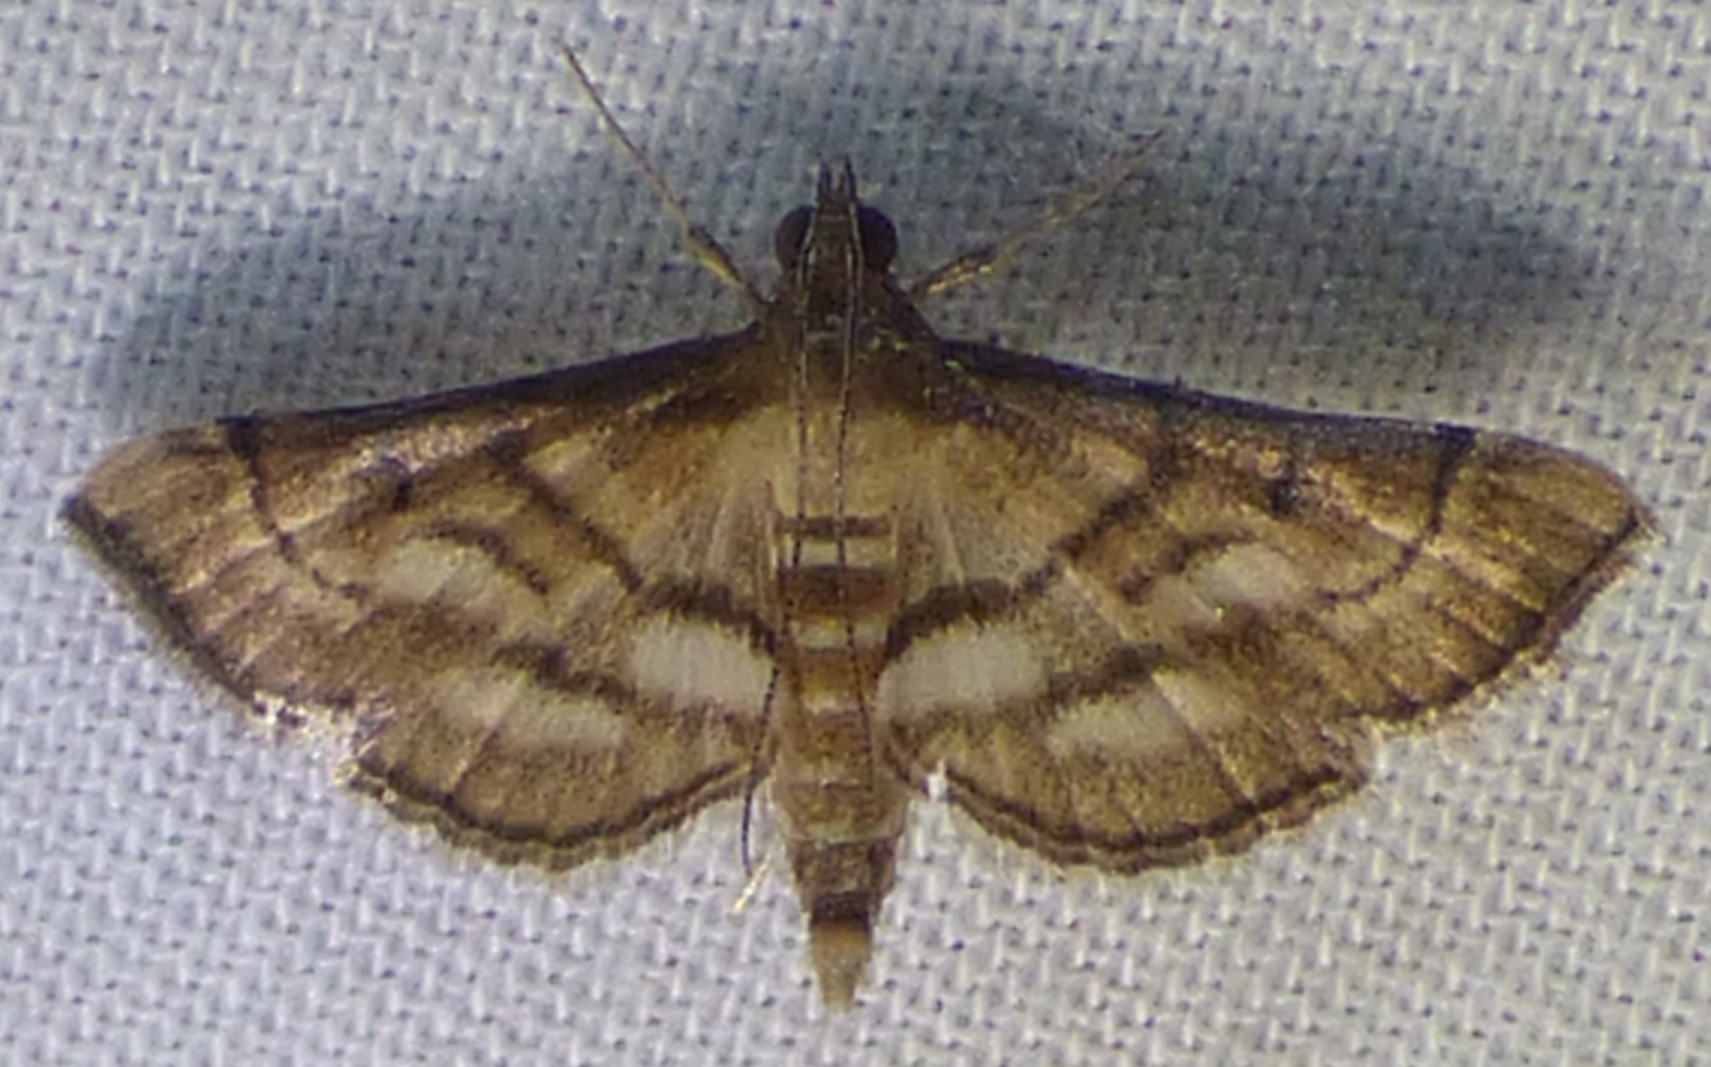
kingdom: Animalia
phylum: Arthropoda
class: Insecta
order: Lepidoptera
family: Crambidae
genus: Cnaphalocrocis
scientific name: Cnaphalocrocis Marasmia cochrusalis
